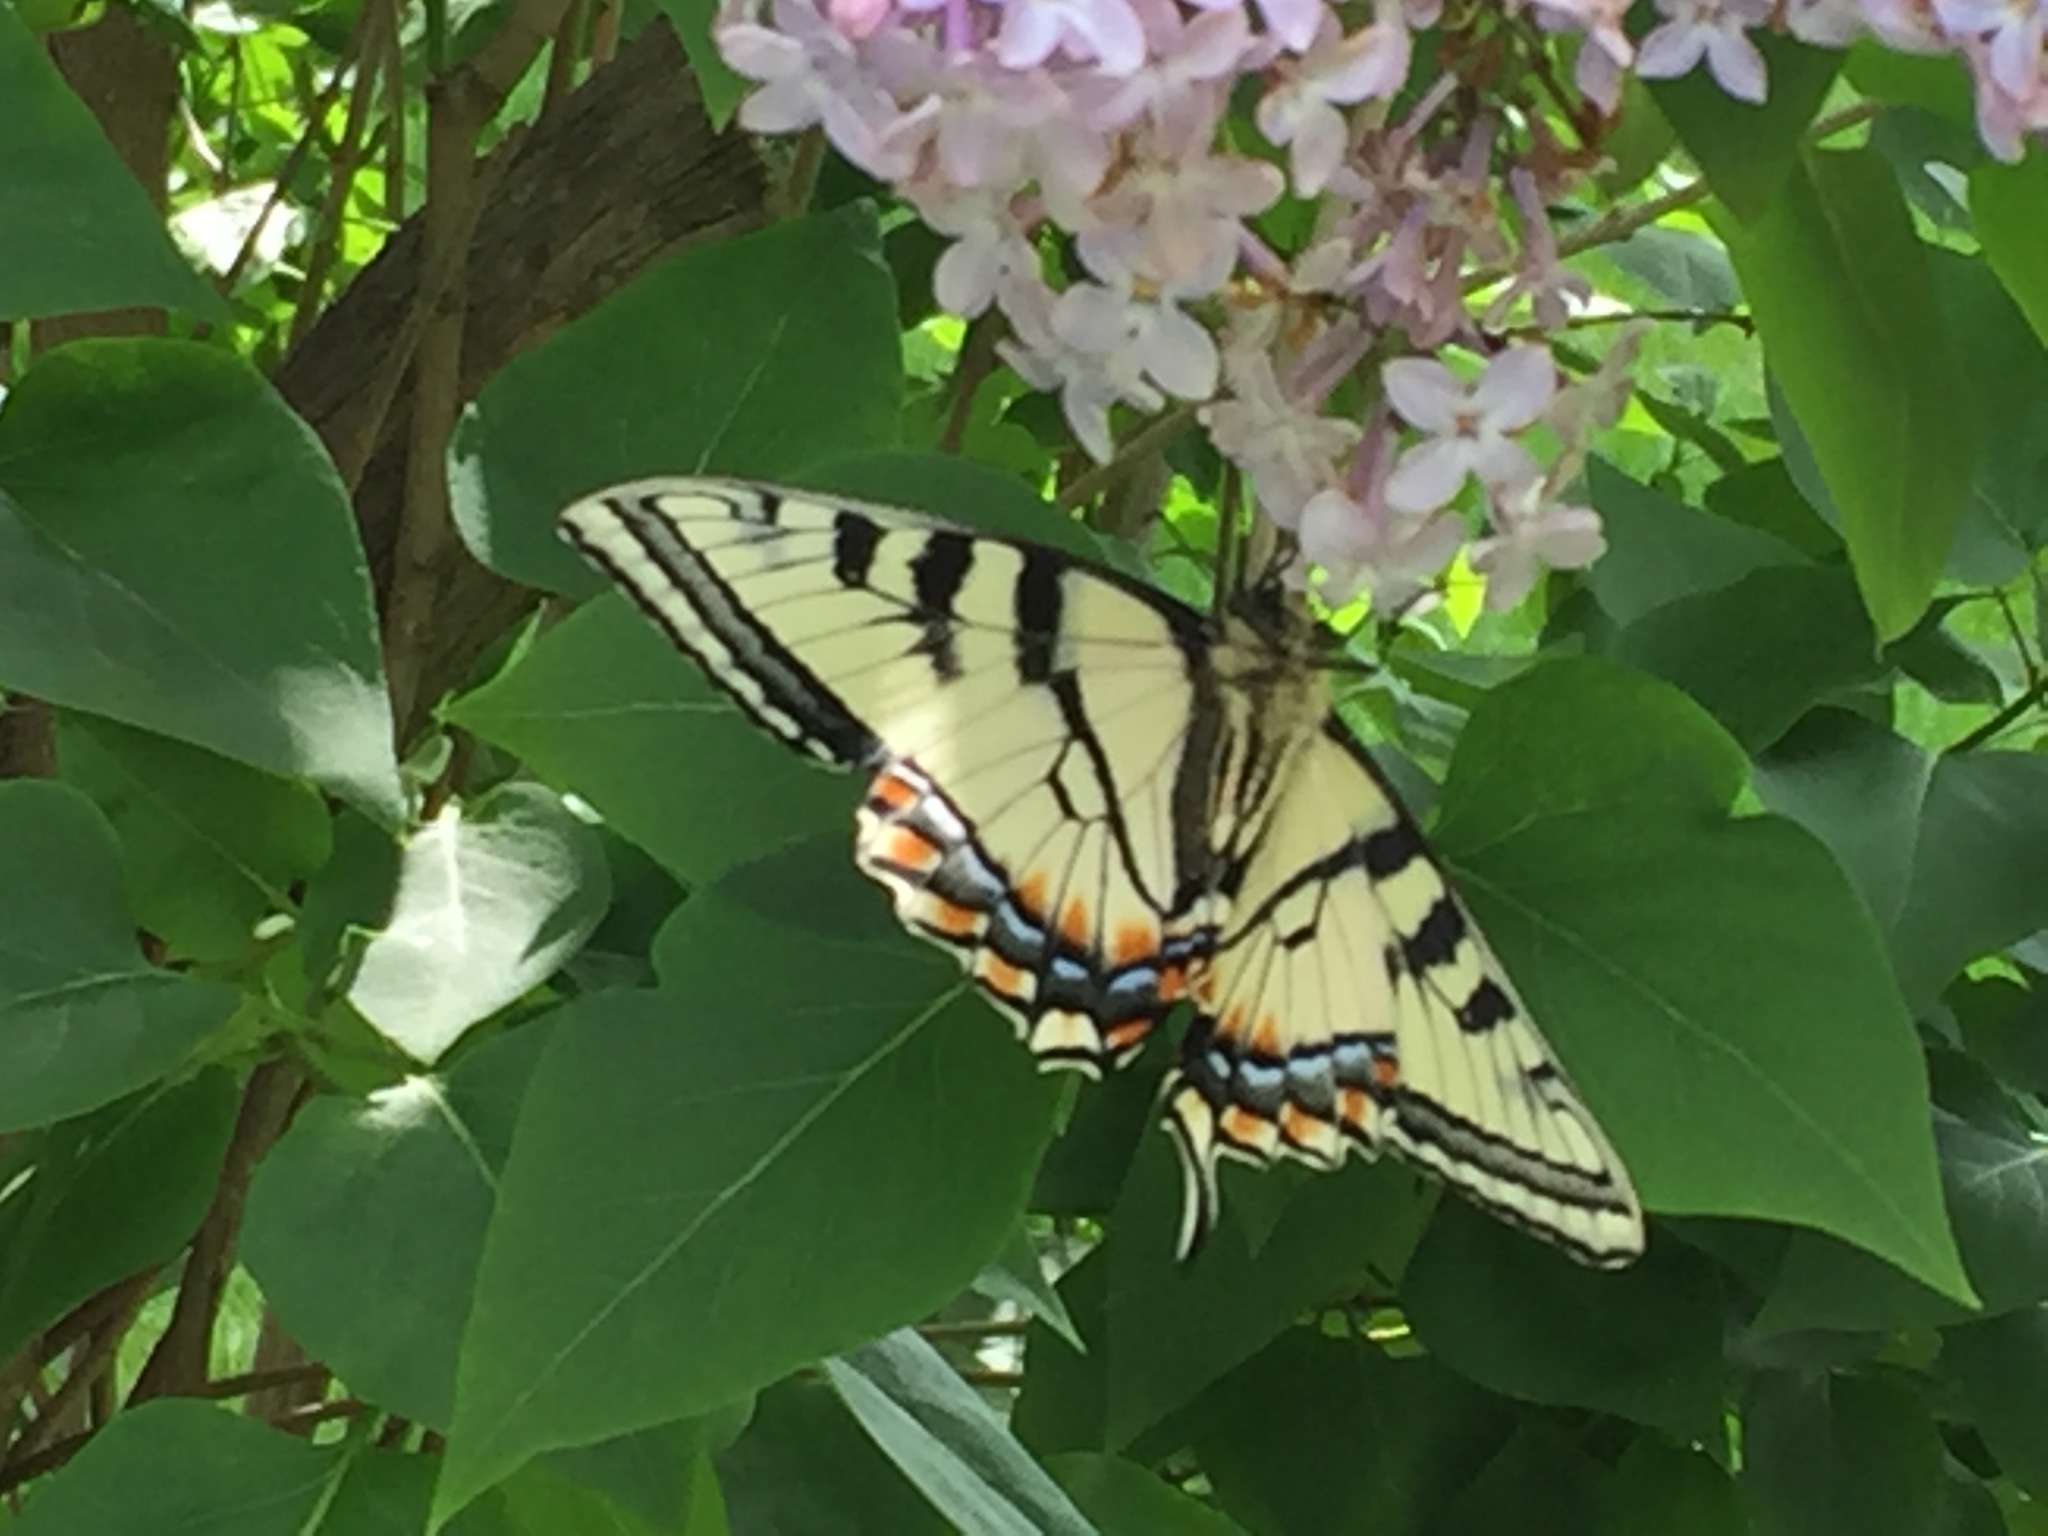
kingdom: Animalia
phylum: Arthropoda
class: Insecta
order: Lepidoptera
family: Papilionidae
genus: Papilio
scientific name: Papilio canadensis
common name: Canadian tiger swallowtail
